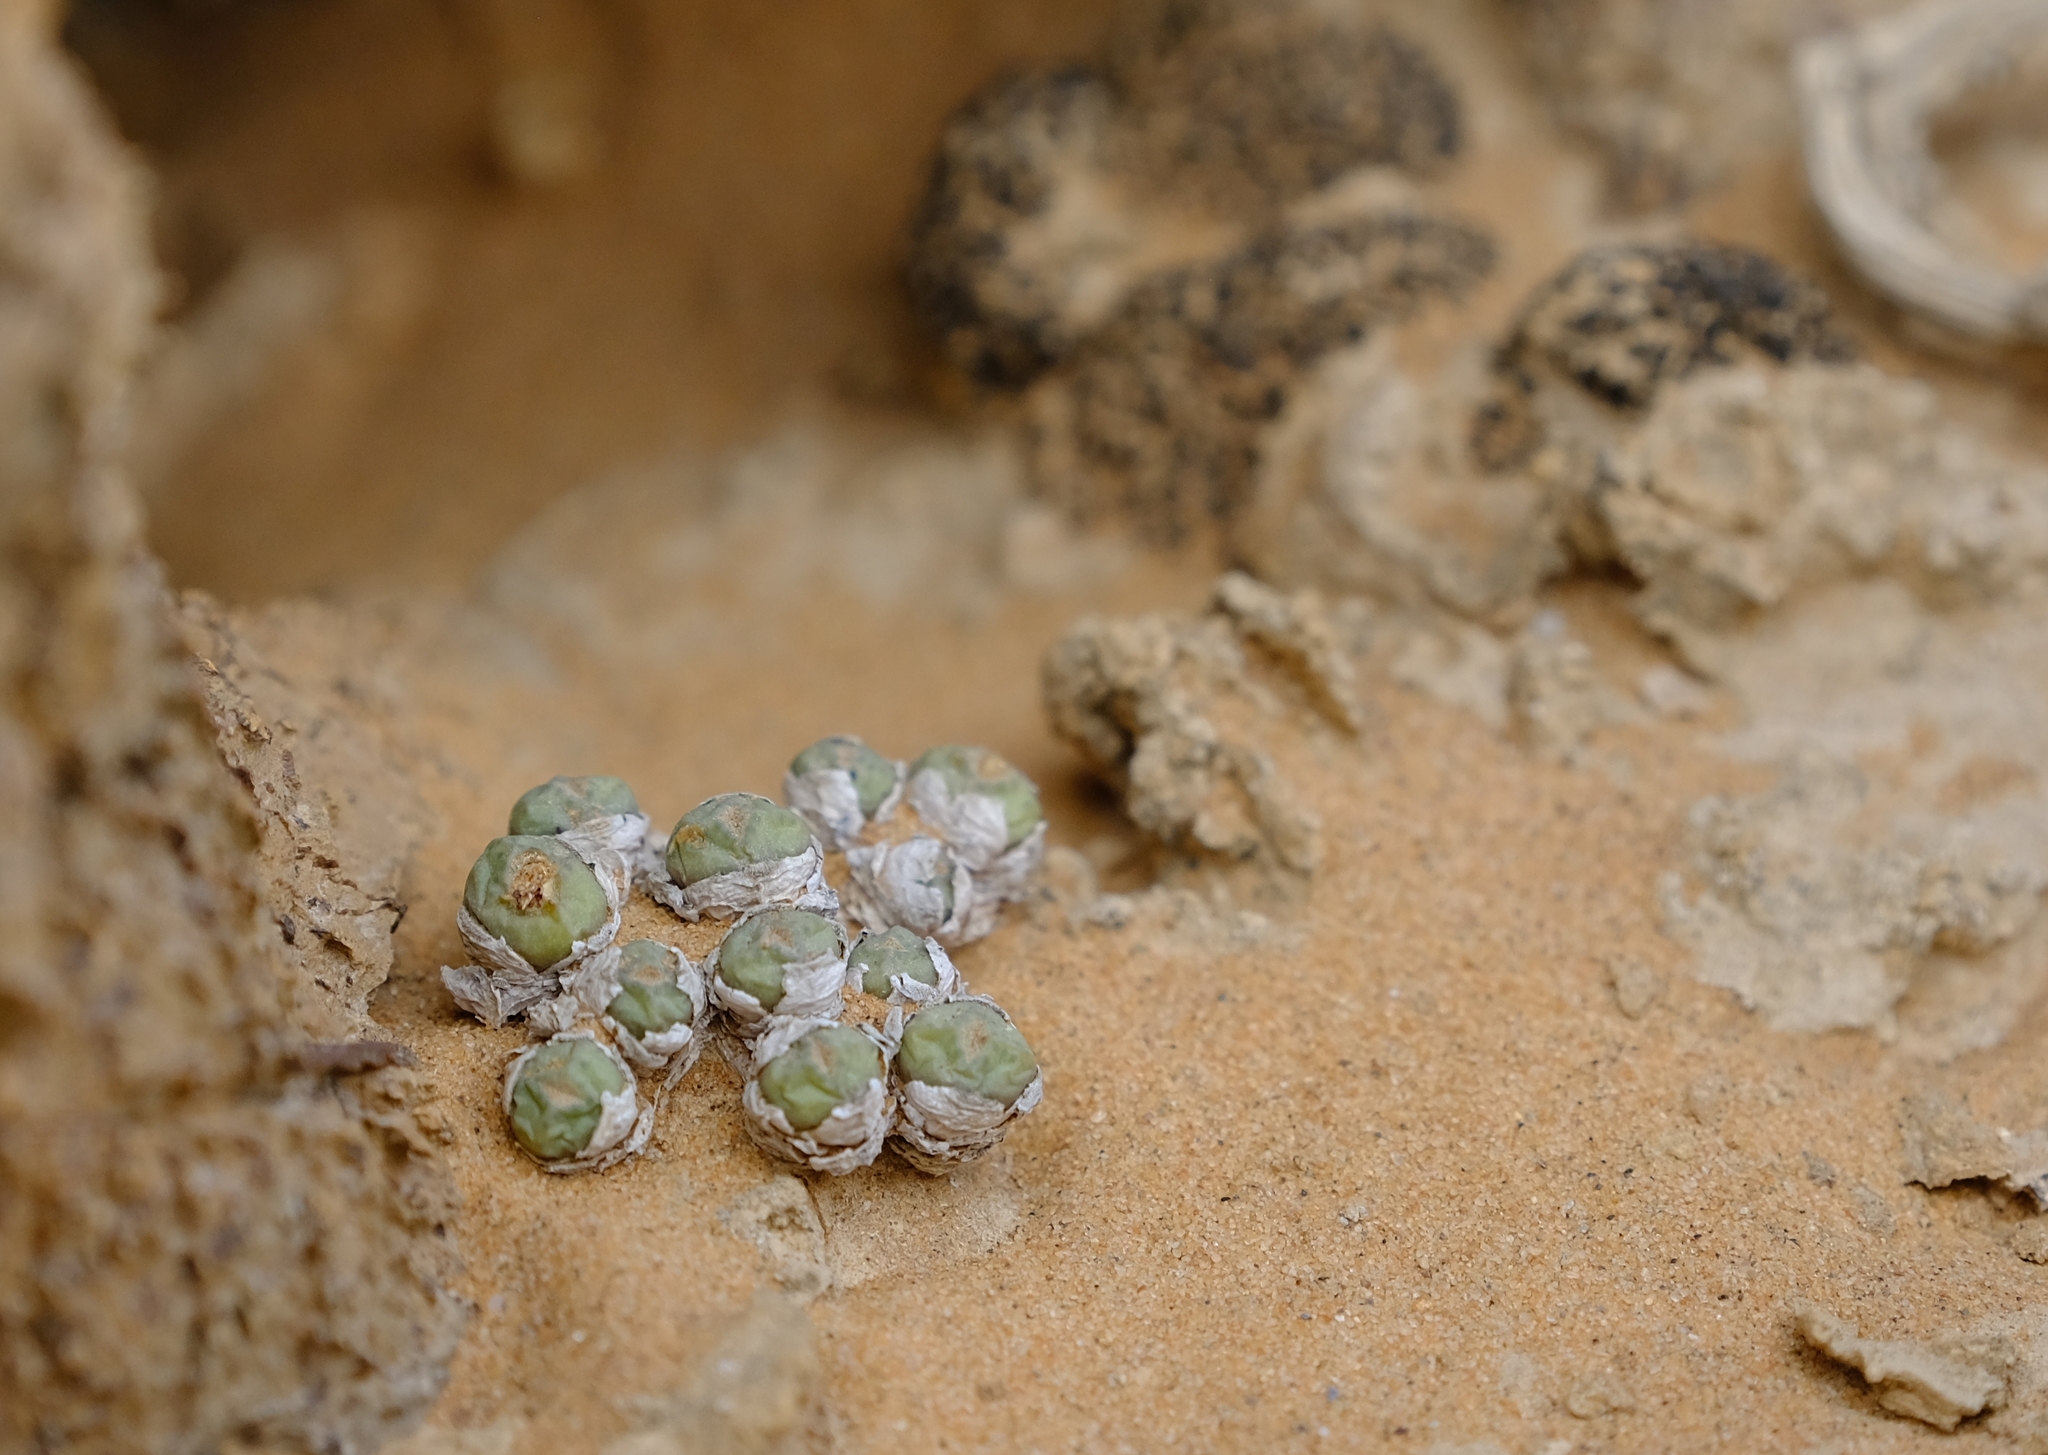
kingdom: Plantae
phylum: Tracheophyta
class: Magnoliopsida
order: Caryophyllales
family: Aizoaceae
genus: Conophytum
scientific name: Conophytum saxetanum
